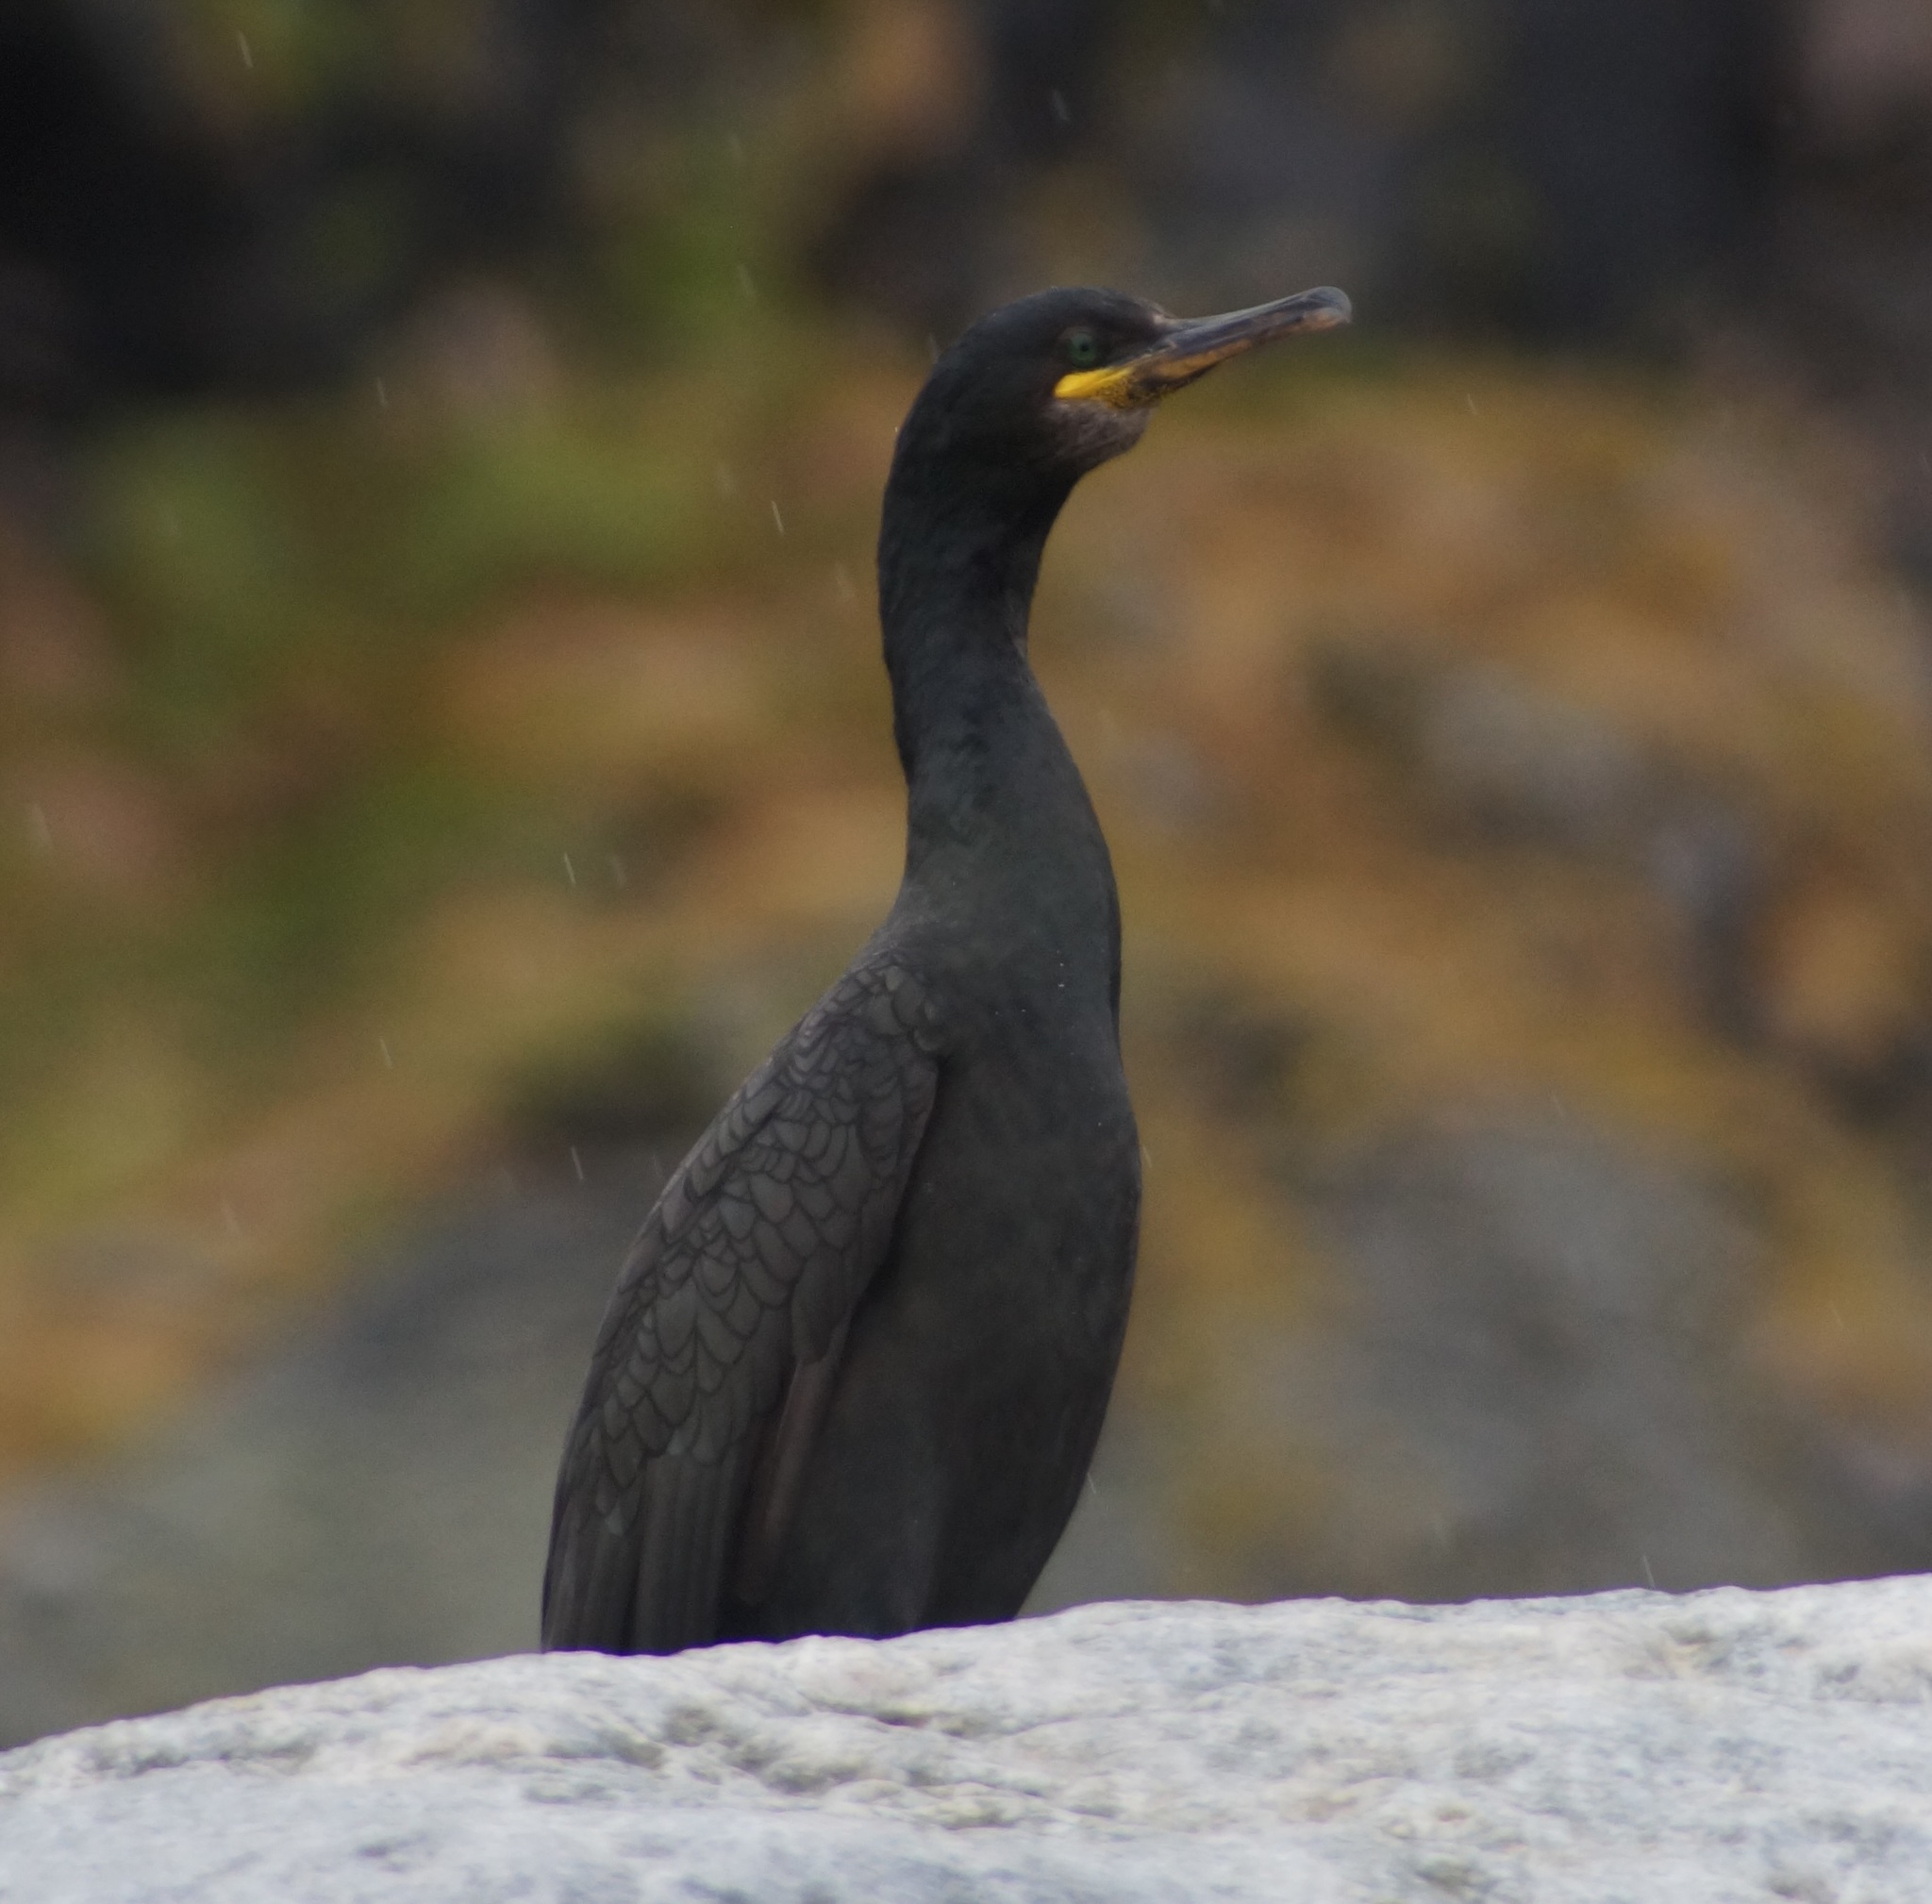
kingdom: Animalia
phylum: Chordata
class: Aves
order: Suliformes
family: Phalacrocoracidae
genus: Phalacrocorax
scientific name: Phalacrocorax aristotelis
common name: European shag
